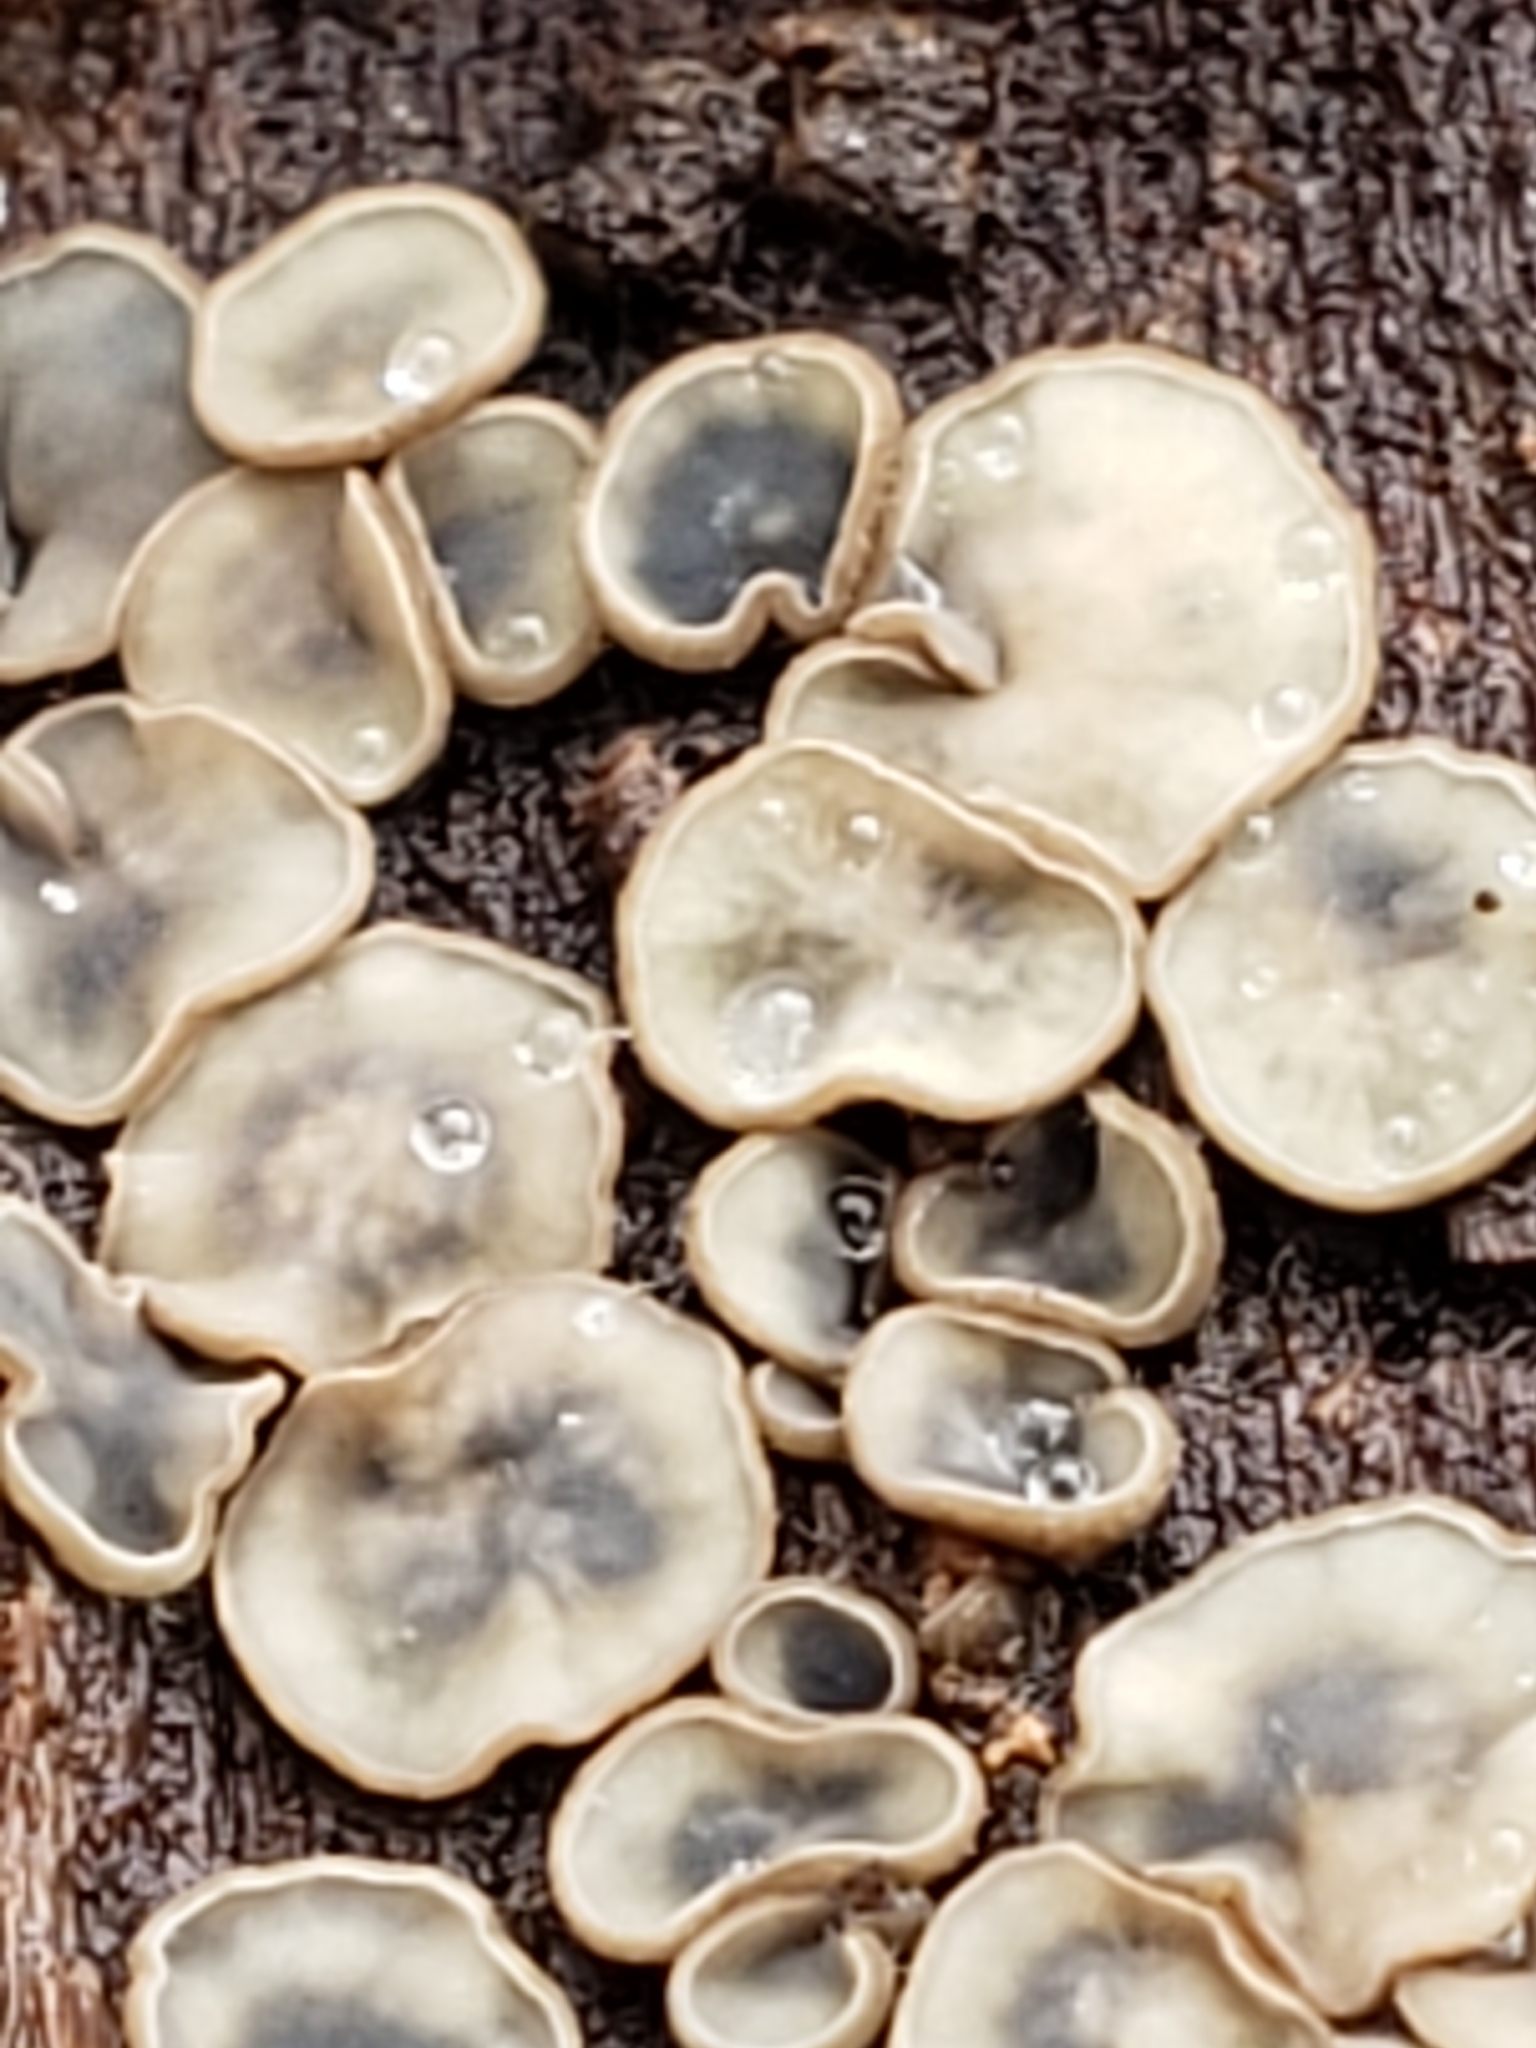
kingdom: Fungi
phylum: Ascomycota
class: Leotiomycetes
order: Helotiales
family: Chlorospleniaceae
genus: Chlorosplenium
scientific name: Chlorosplenium chlora
